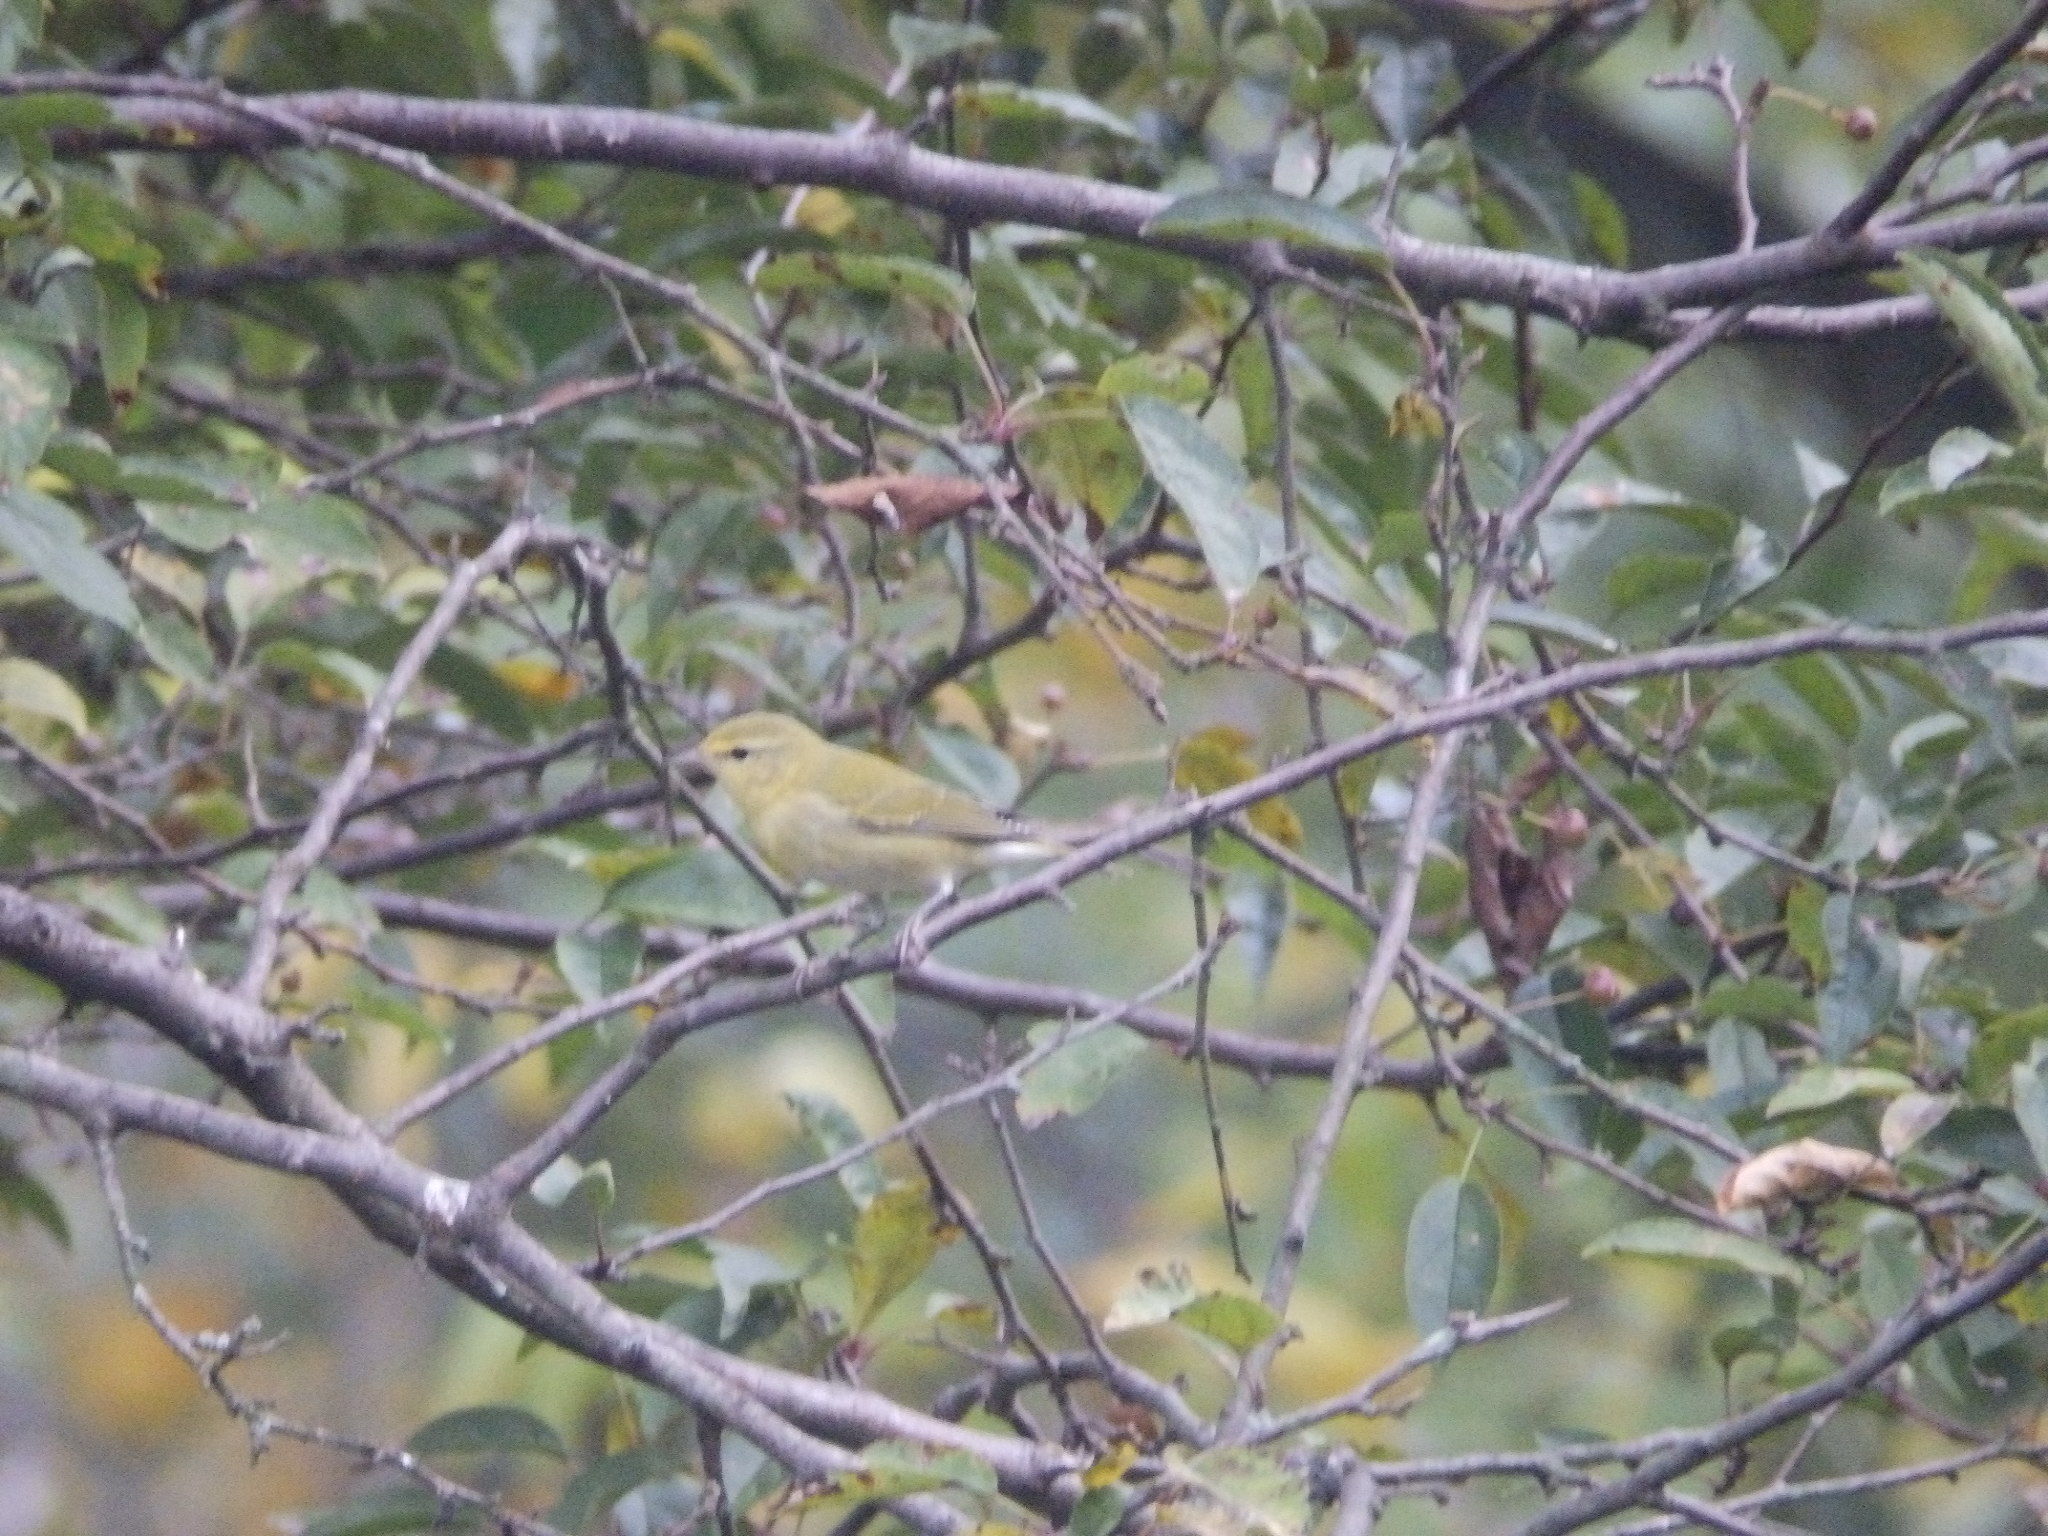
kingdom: Animalia
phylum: Chordata
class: Aves
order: Passeriformes
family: Parulidae
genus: Leiothlypis
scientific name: Leiothlypis peregrina
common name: Tennessee warbler
